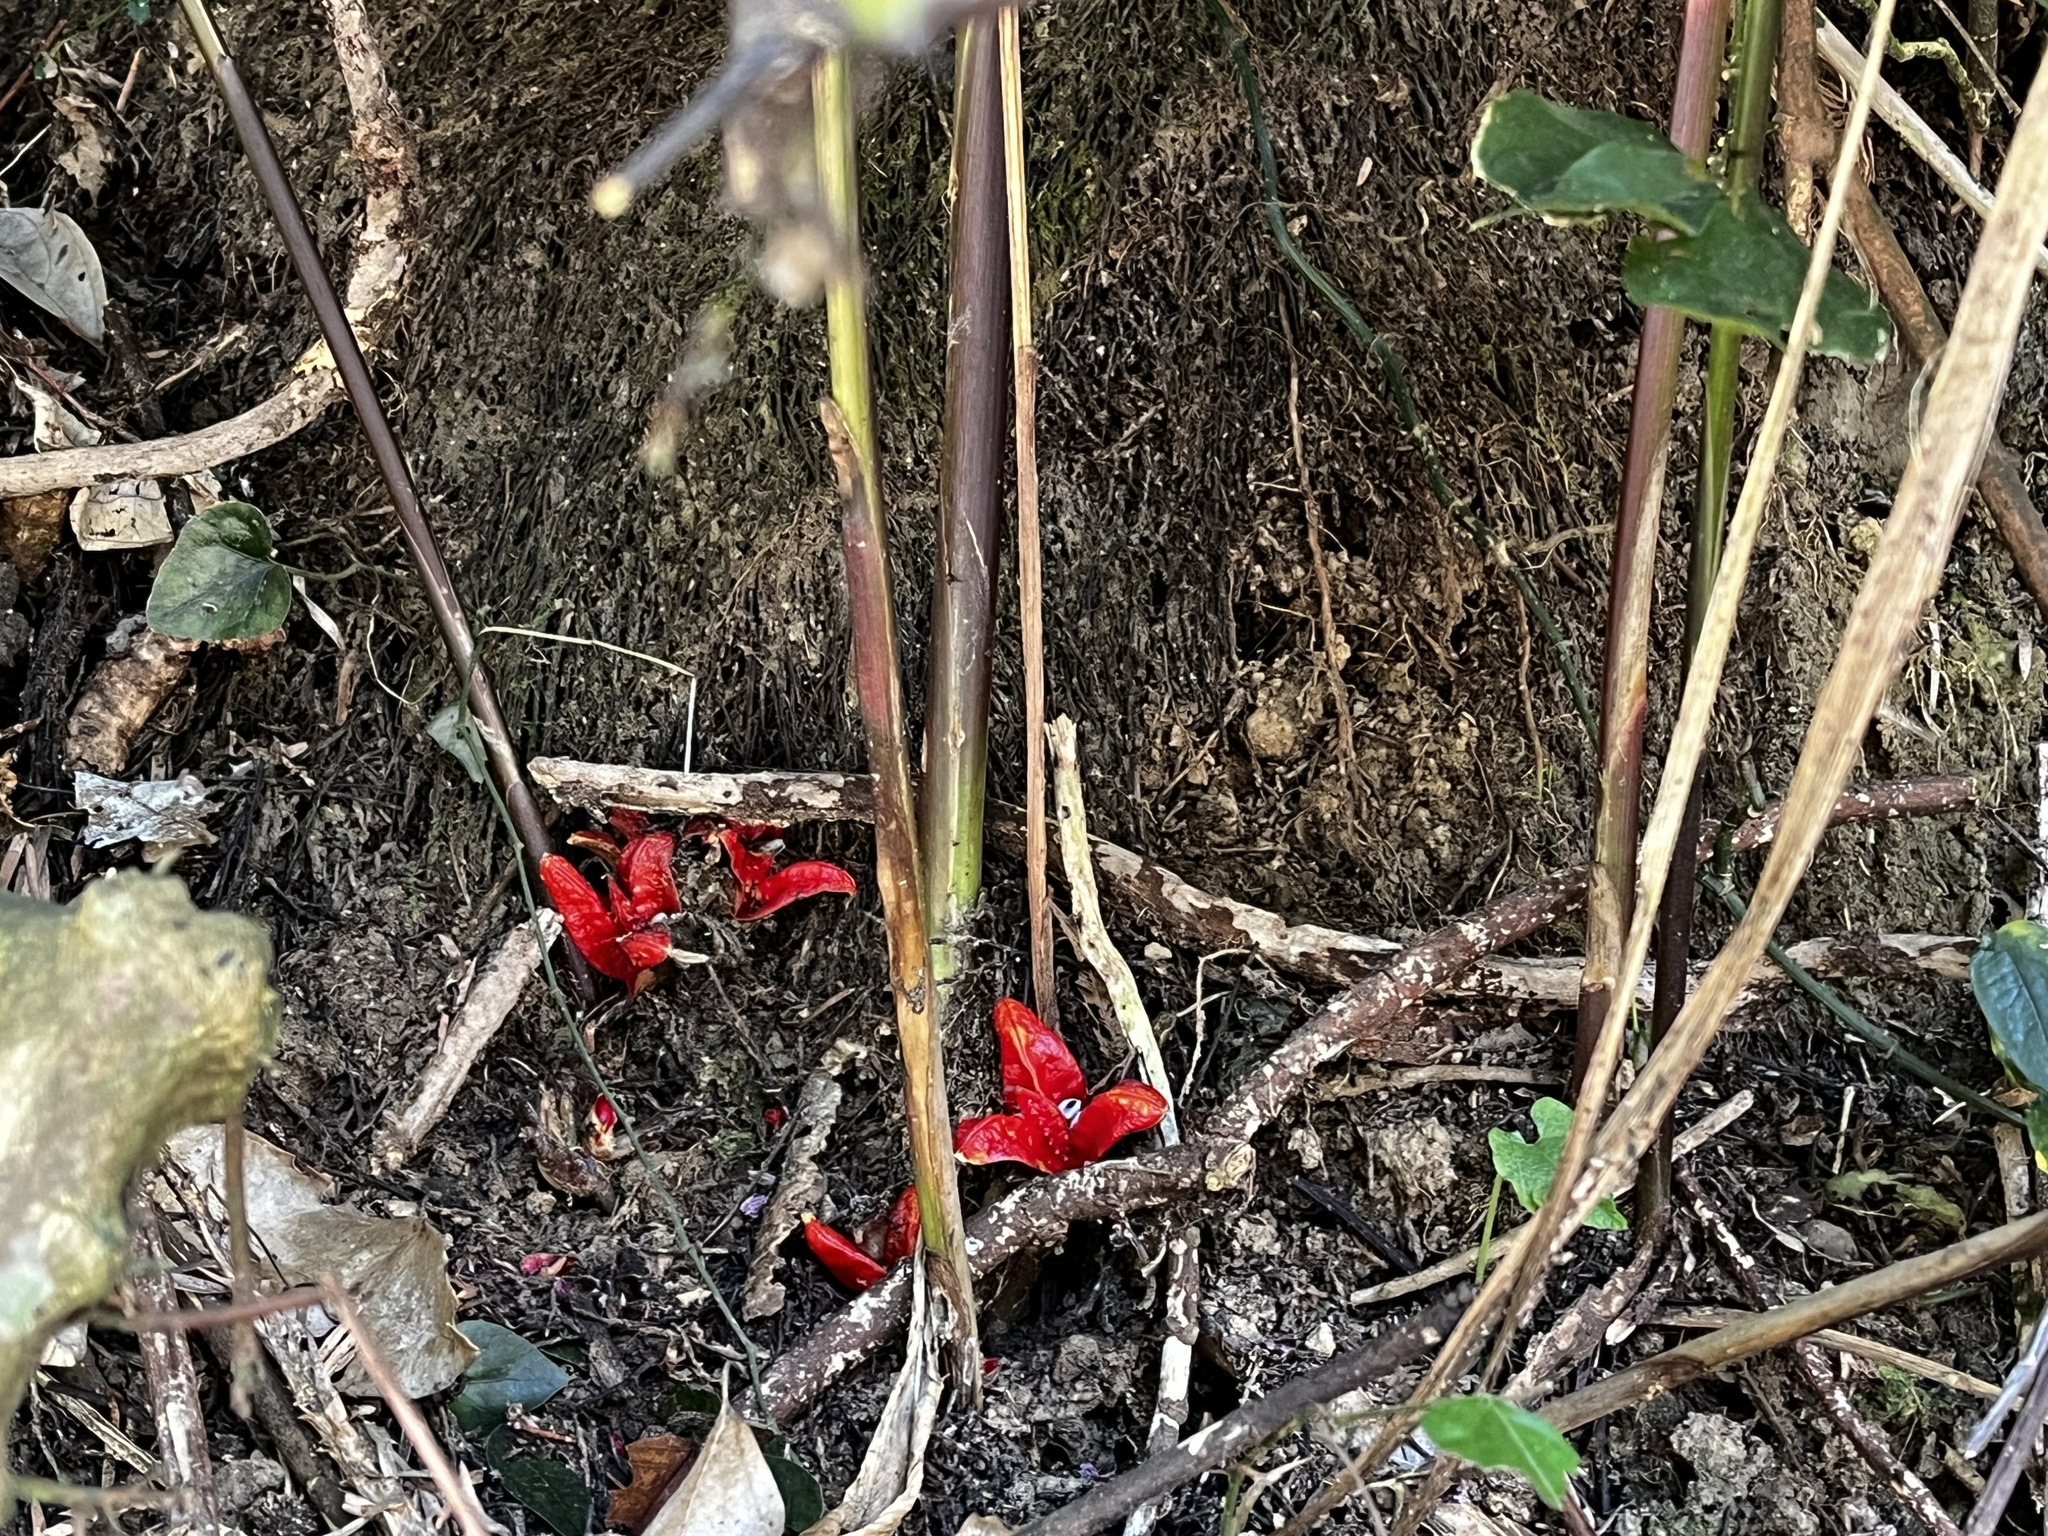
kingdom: Plantae
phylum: Tracheophyta
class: Liliopsida
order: Zingiberales
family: Zingiberaceae
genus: Zingiber
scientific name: Zingiber kawagoii
